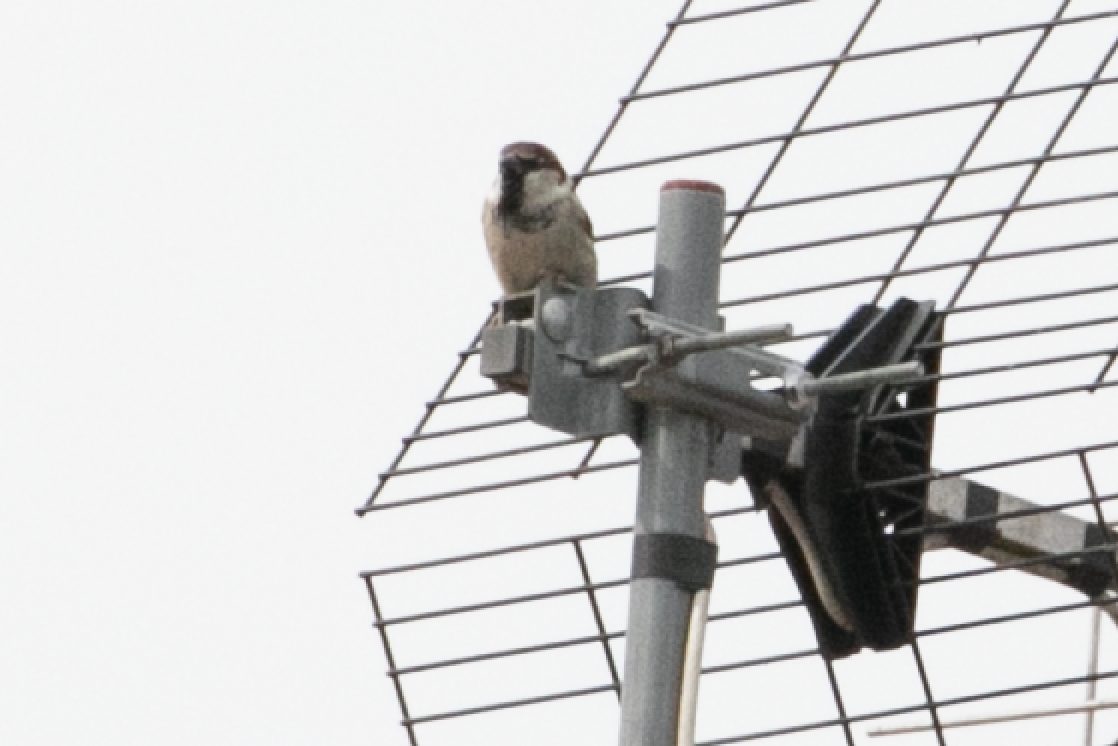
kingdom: Animalia
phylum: Chordata
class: Aves
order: Passeriformes
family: Passeridae
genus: Passer
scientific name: Passer italiae
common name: Italian sparrow
